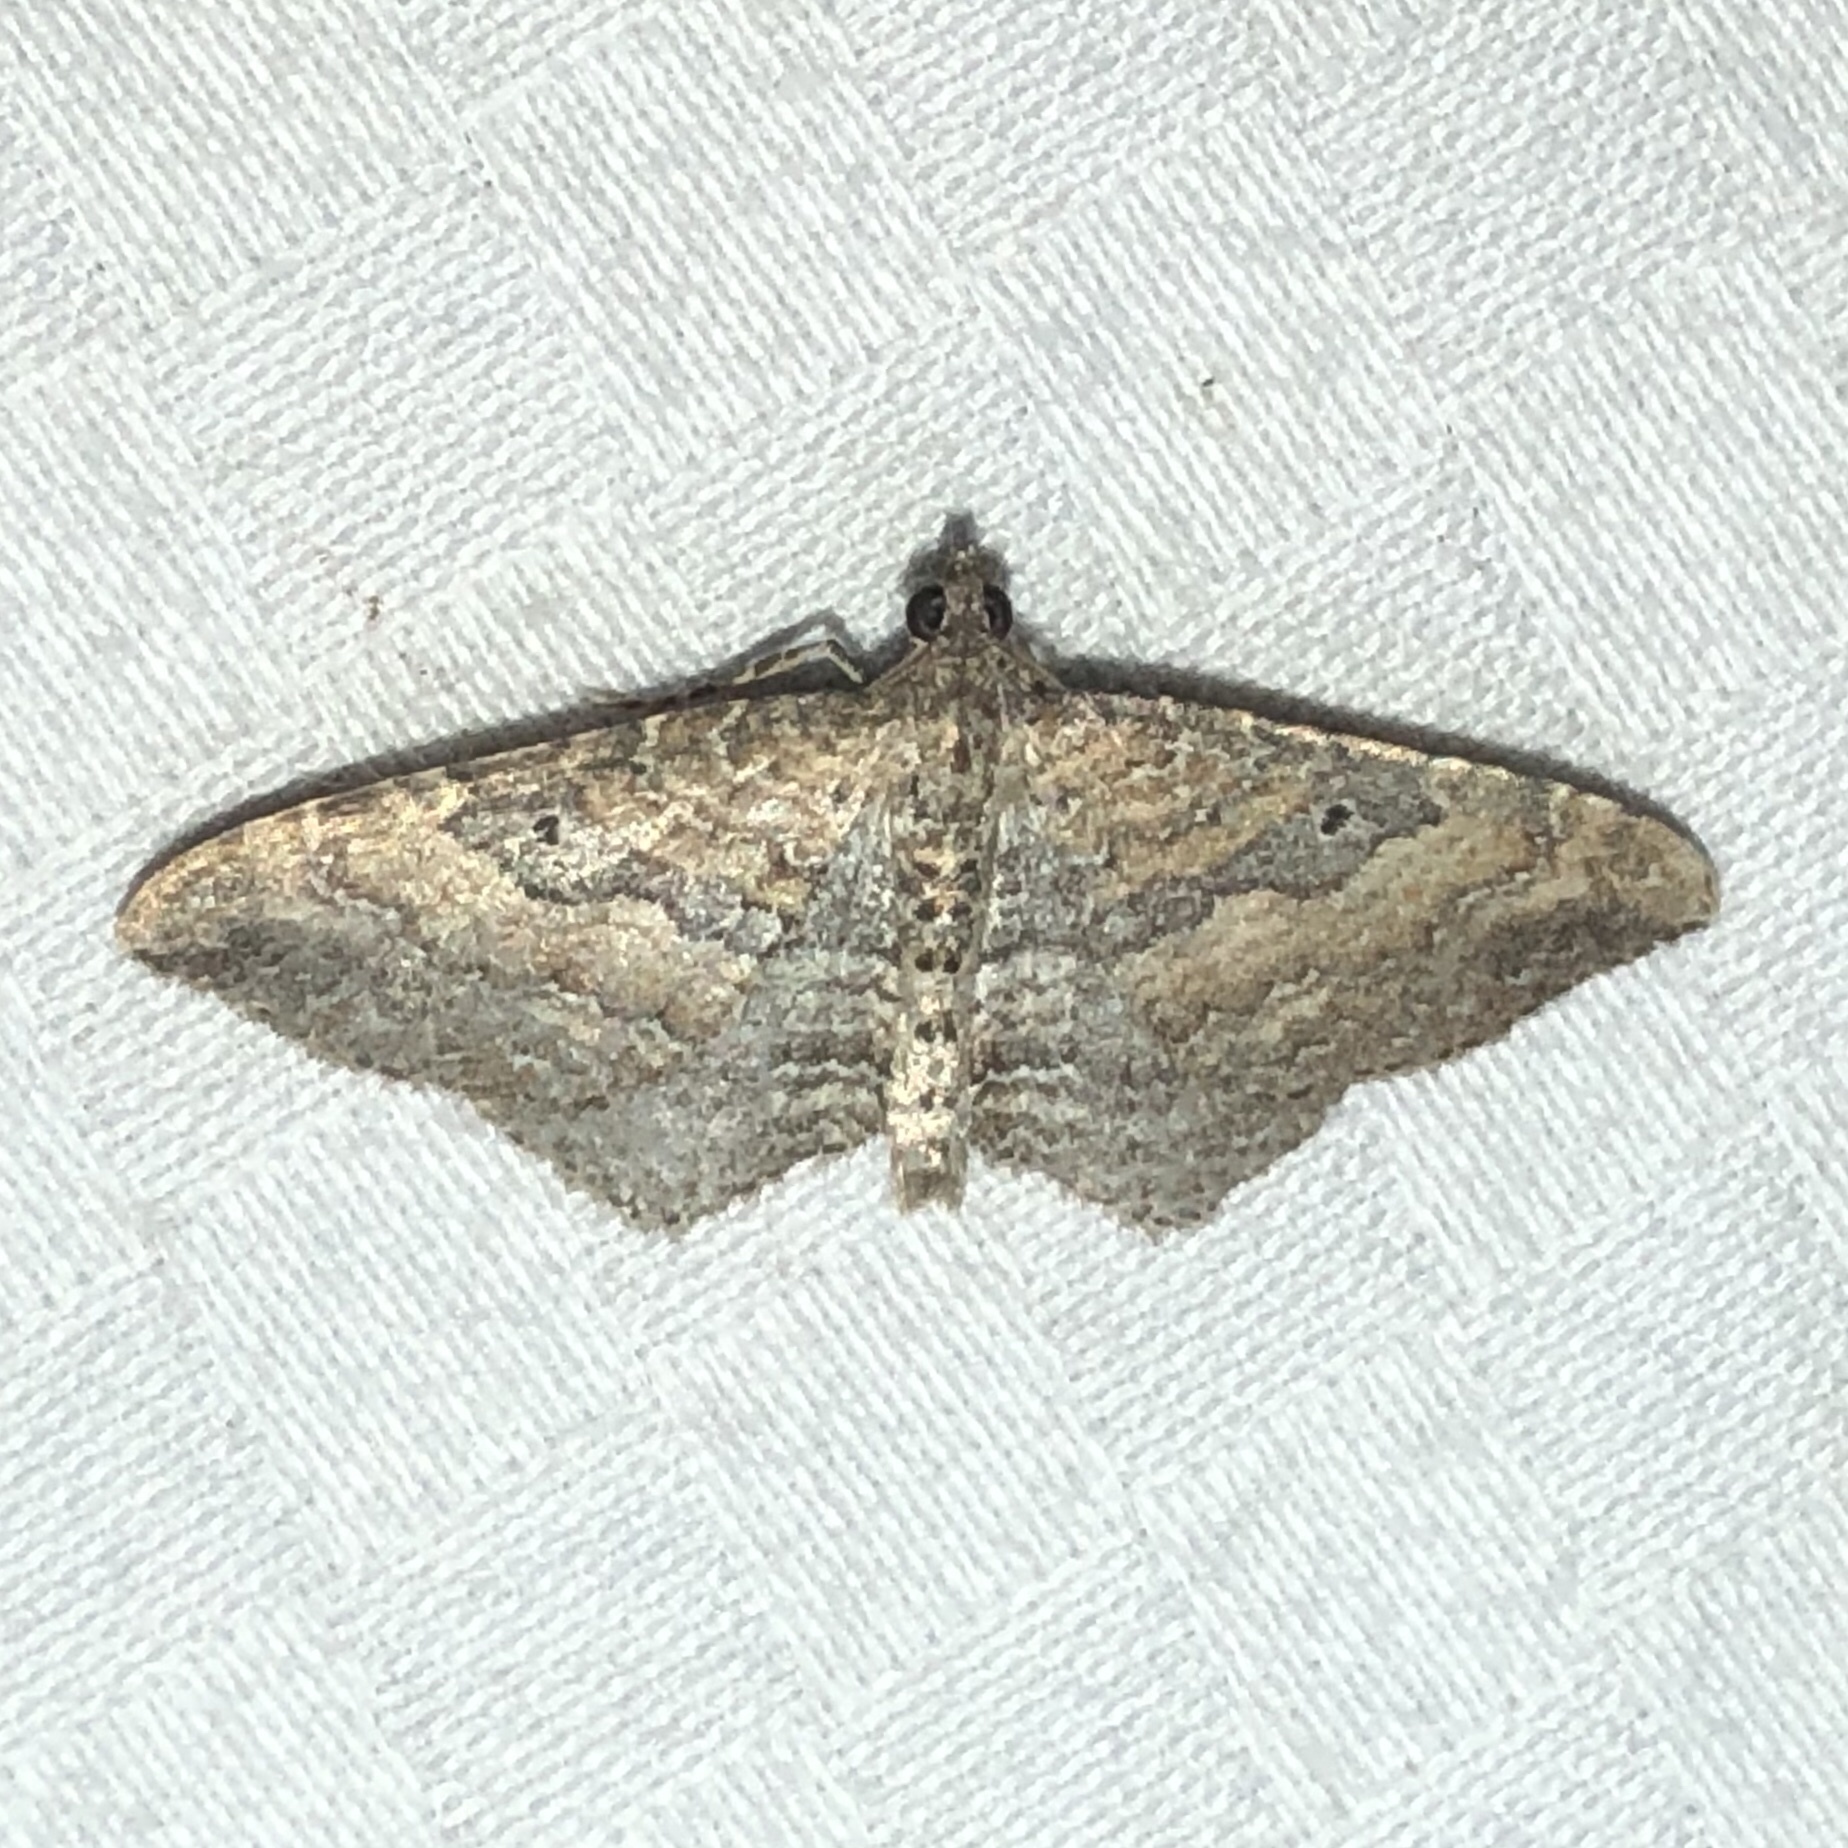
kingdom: Animalia
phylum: Arthropoda
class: Insecta
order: Lepidoptera
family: Geometridae
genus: Orthonama
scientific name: Orthonama obstipata
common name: The gem
